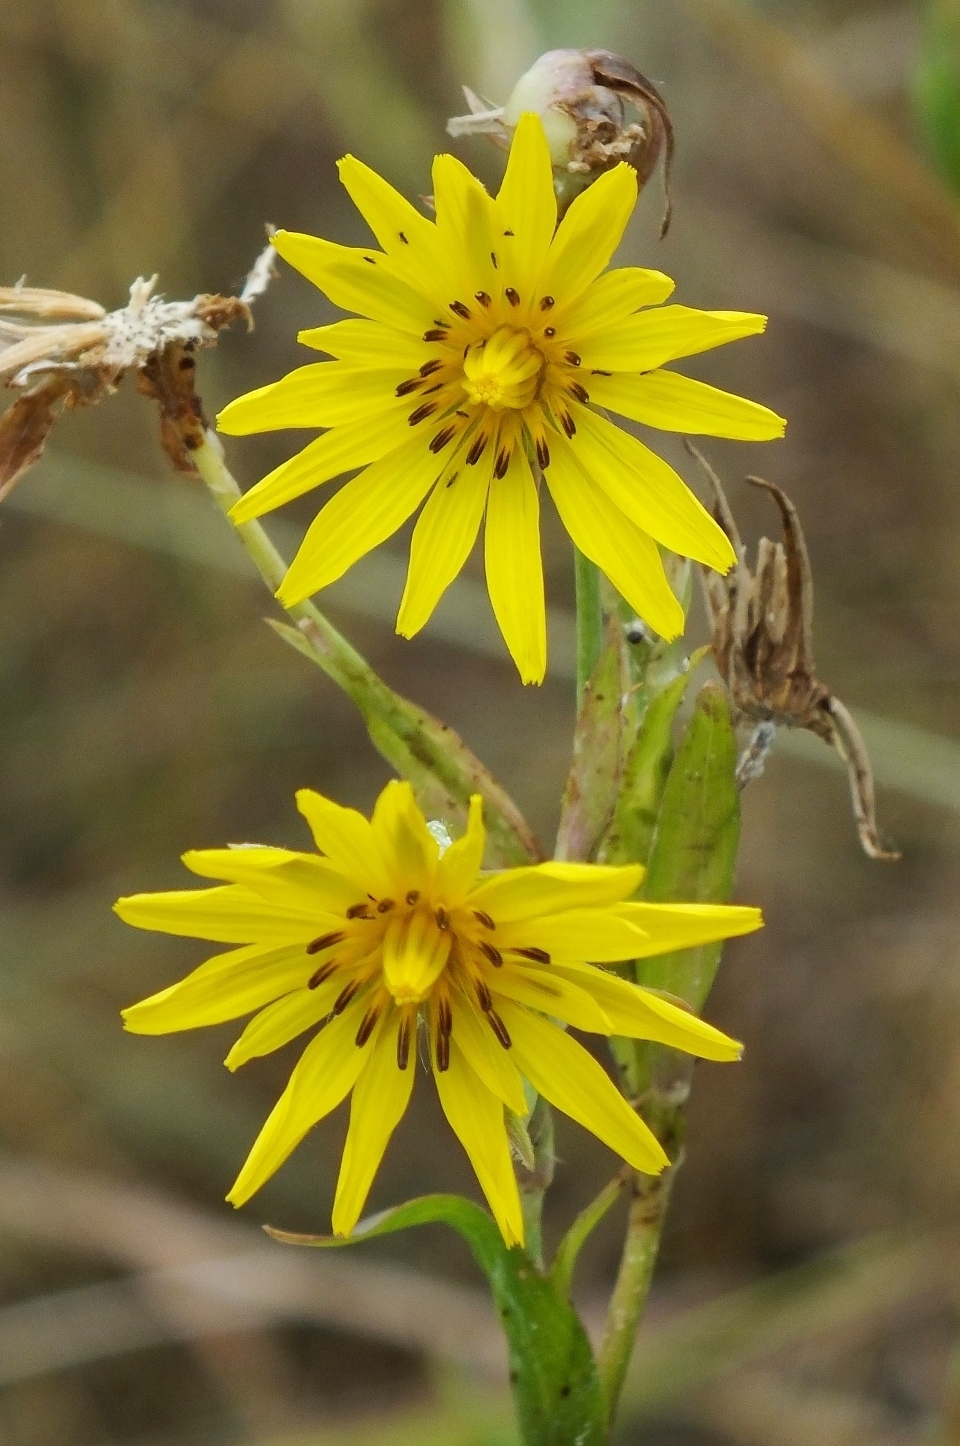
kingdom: Plantae
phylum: Tracheophyta
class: Magnoliopsida
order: Asterales
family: Asteraceae
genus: Tragopogon
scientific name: Tragopogon podolicus
